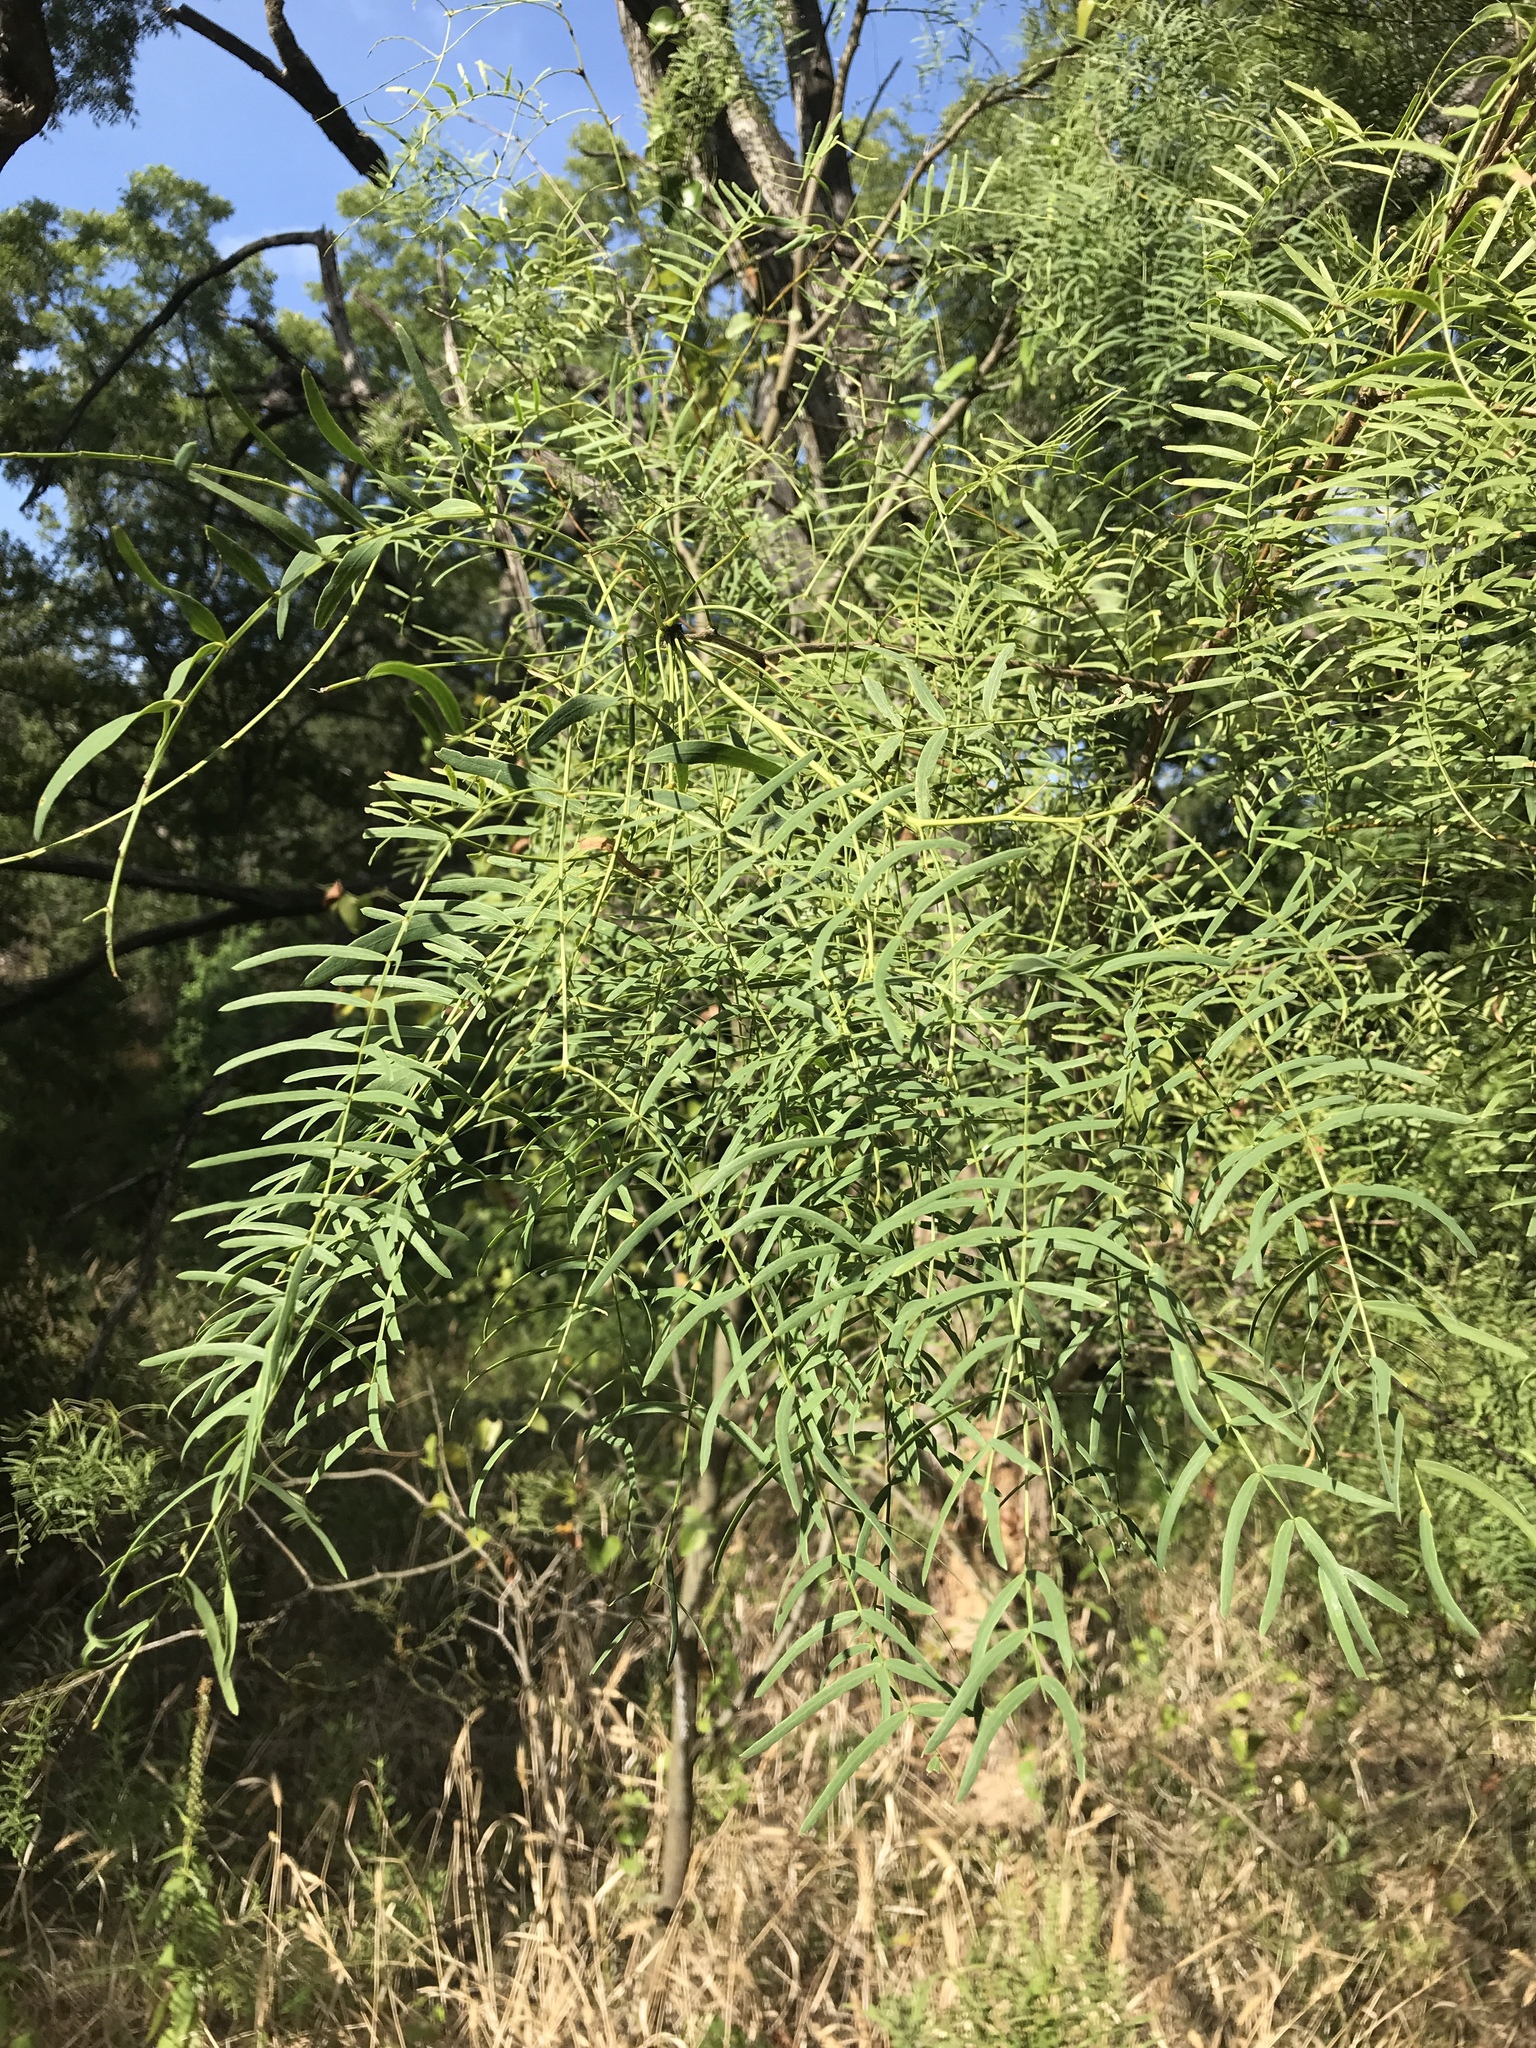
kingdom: Plantae
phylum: Tracheophyta
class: Magnoliopsida
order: Fabales
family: Fabaceae
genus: Prosopis
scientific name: Prosopis glandulosa
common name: Honey mesquite
